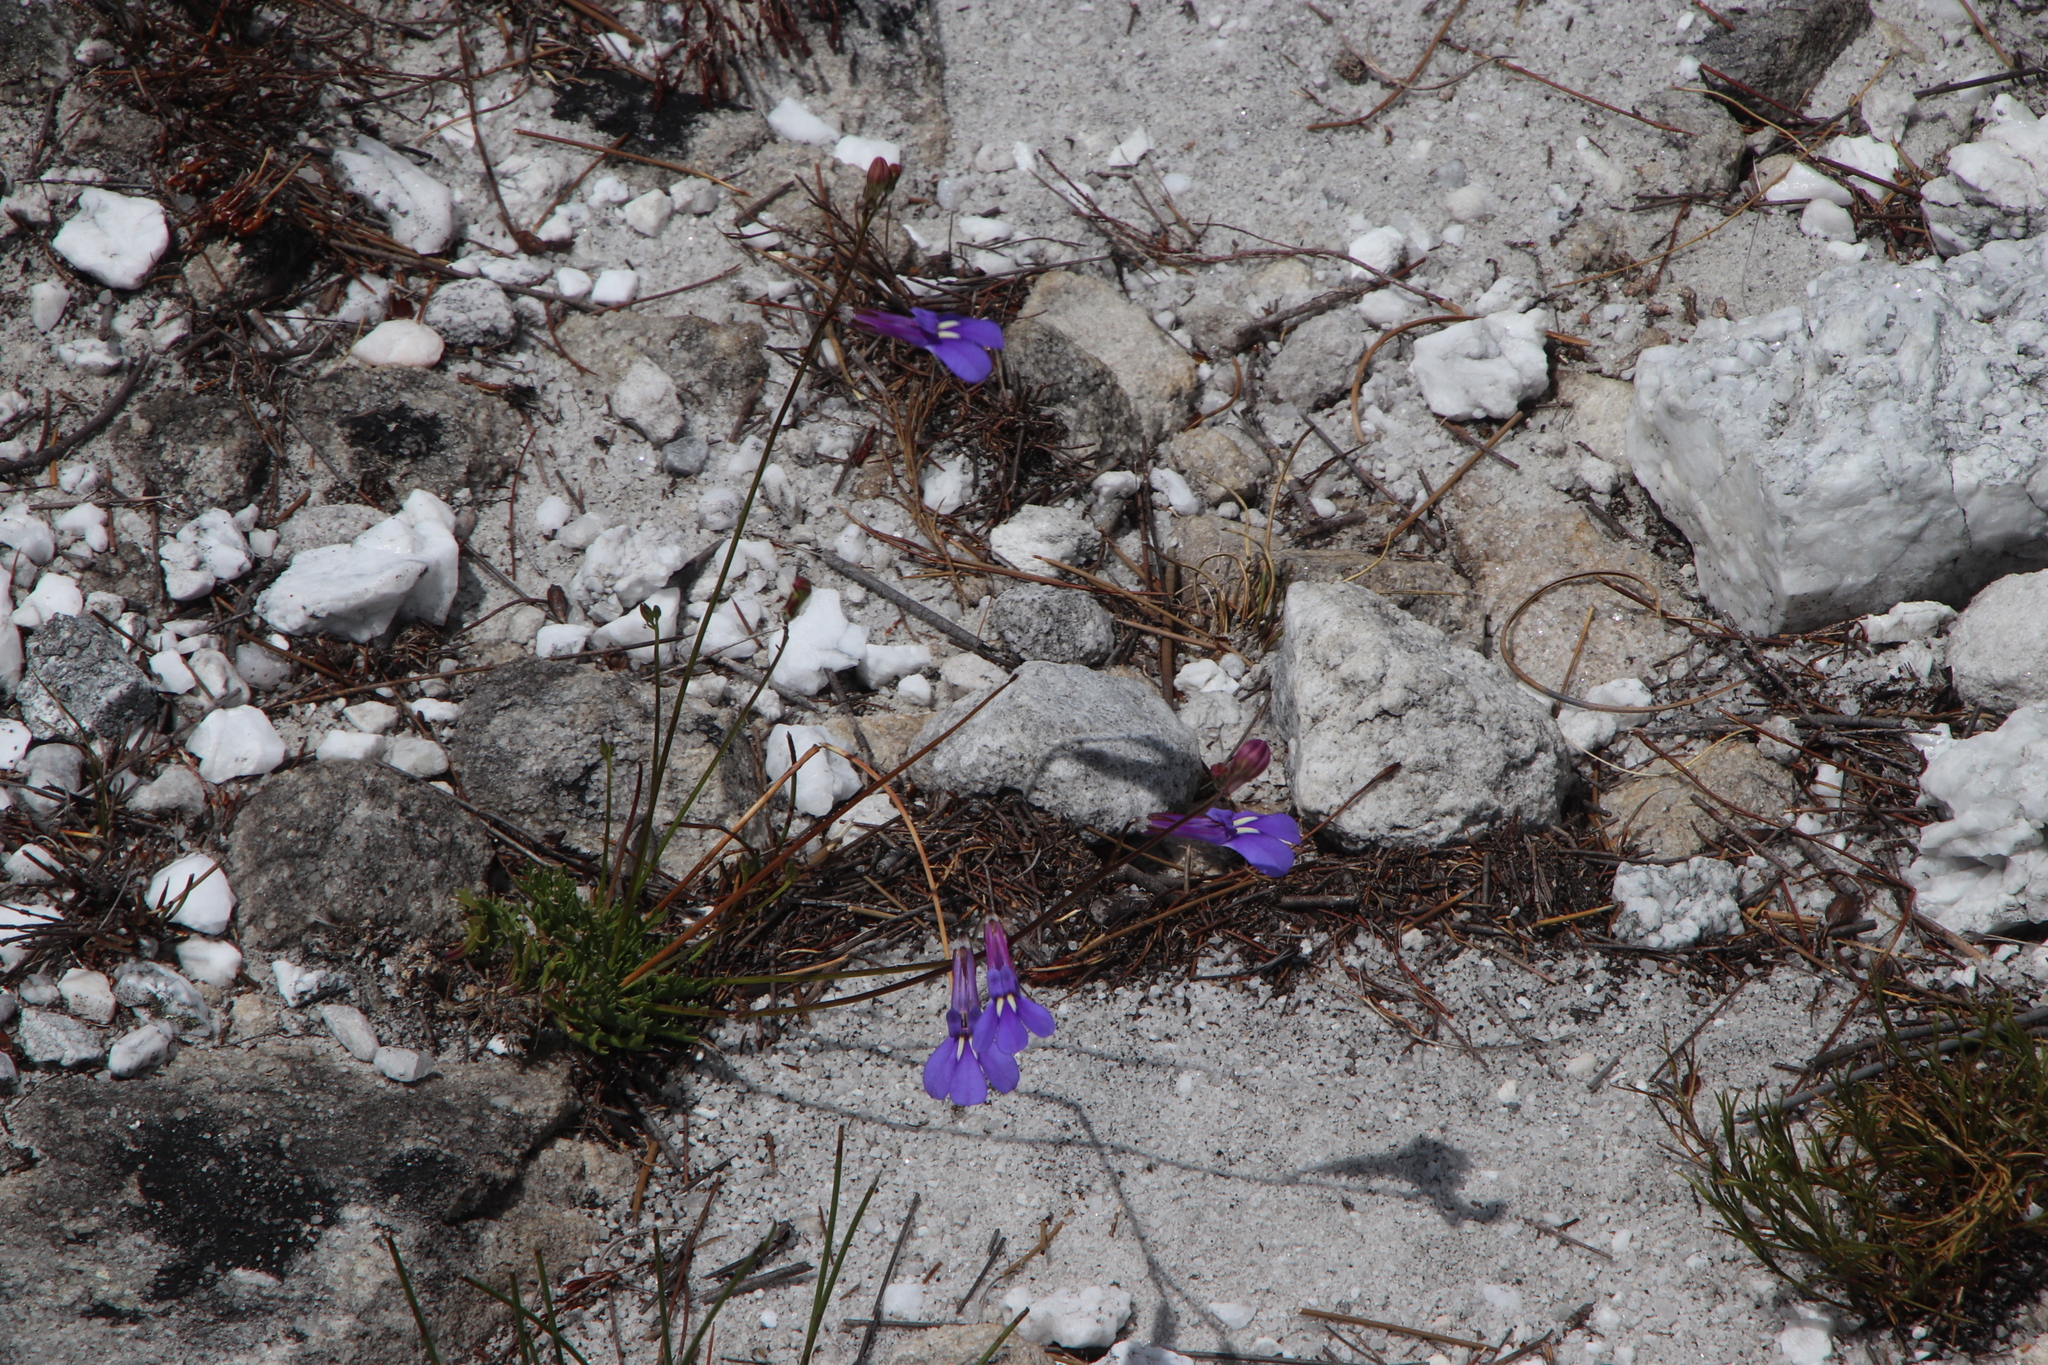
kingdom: Plantae
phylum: Tracheophyta
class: Magnoliopsida
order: Asterales
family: Campanulaceae
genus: Lobelia
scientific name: Lobelia coronopifolia
